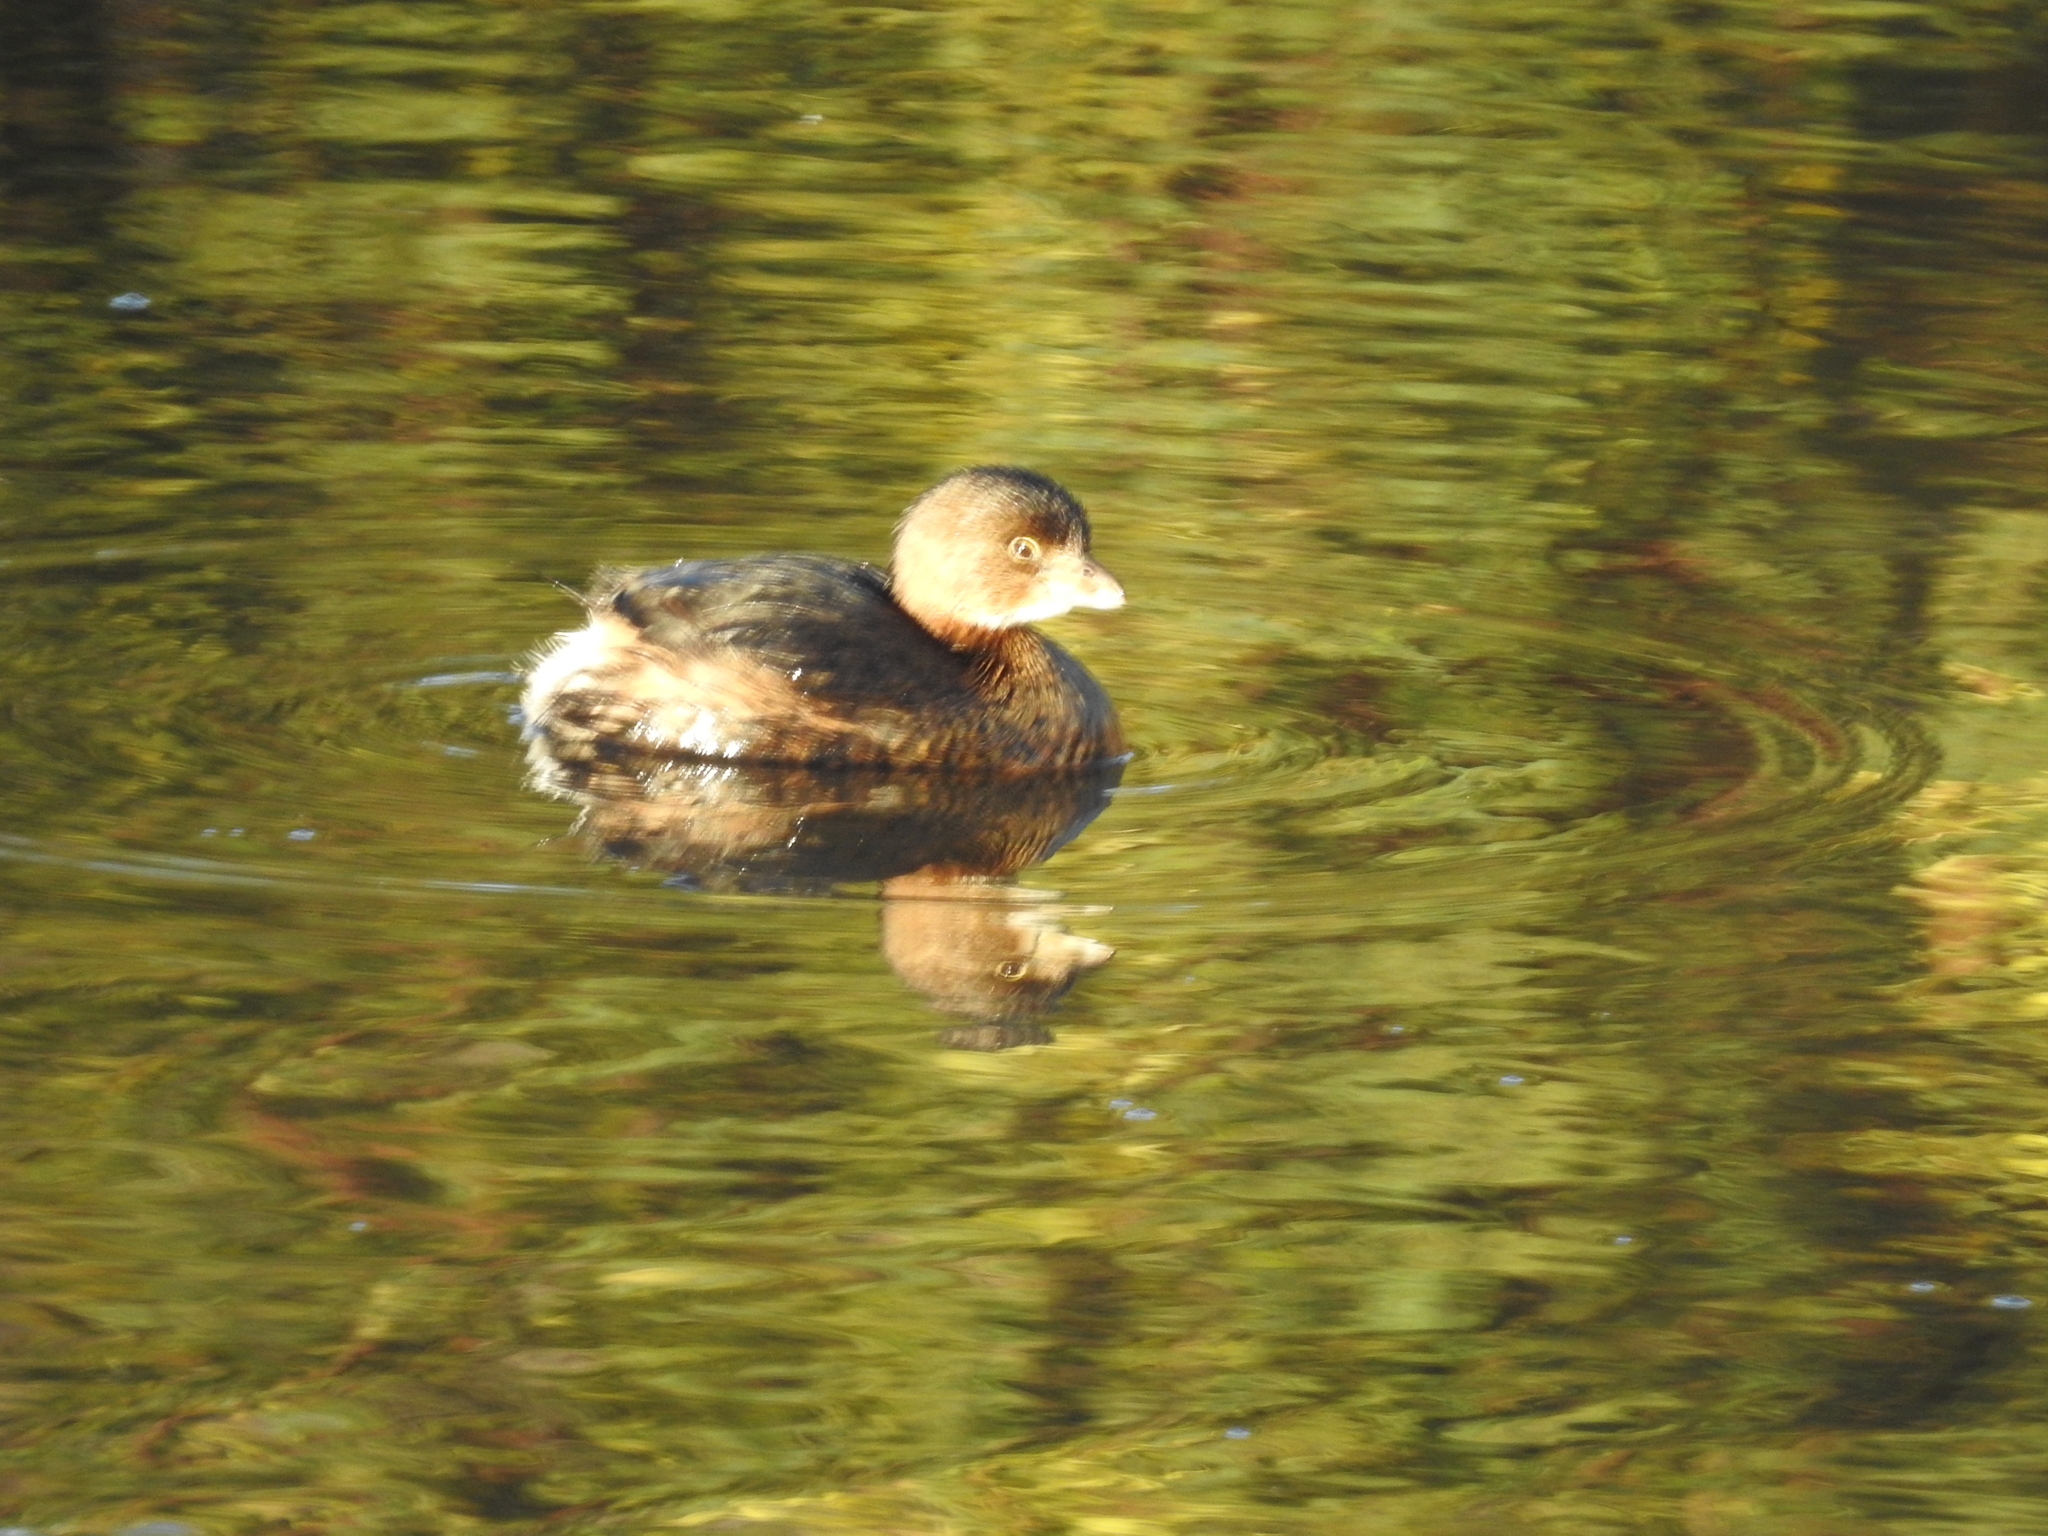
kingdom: Animalia
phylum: Chordata
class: Aves
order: Podicipediformes
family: Podicipedidae
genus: Podilymbus
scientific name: Podilymbus podiceps
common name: Pied-billed grebe
